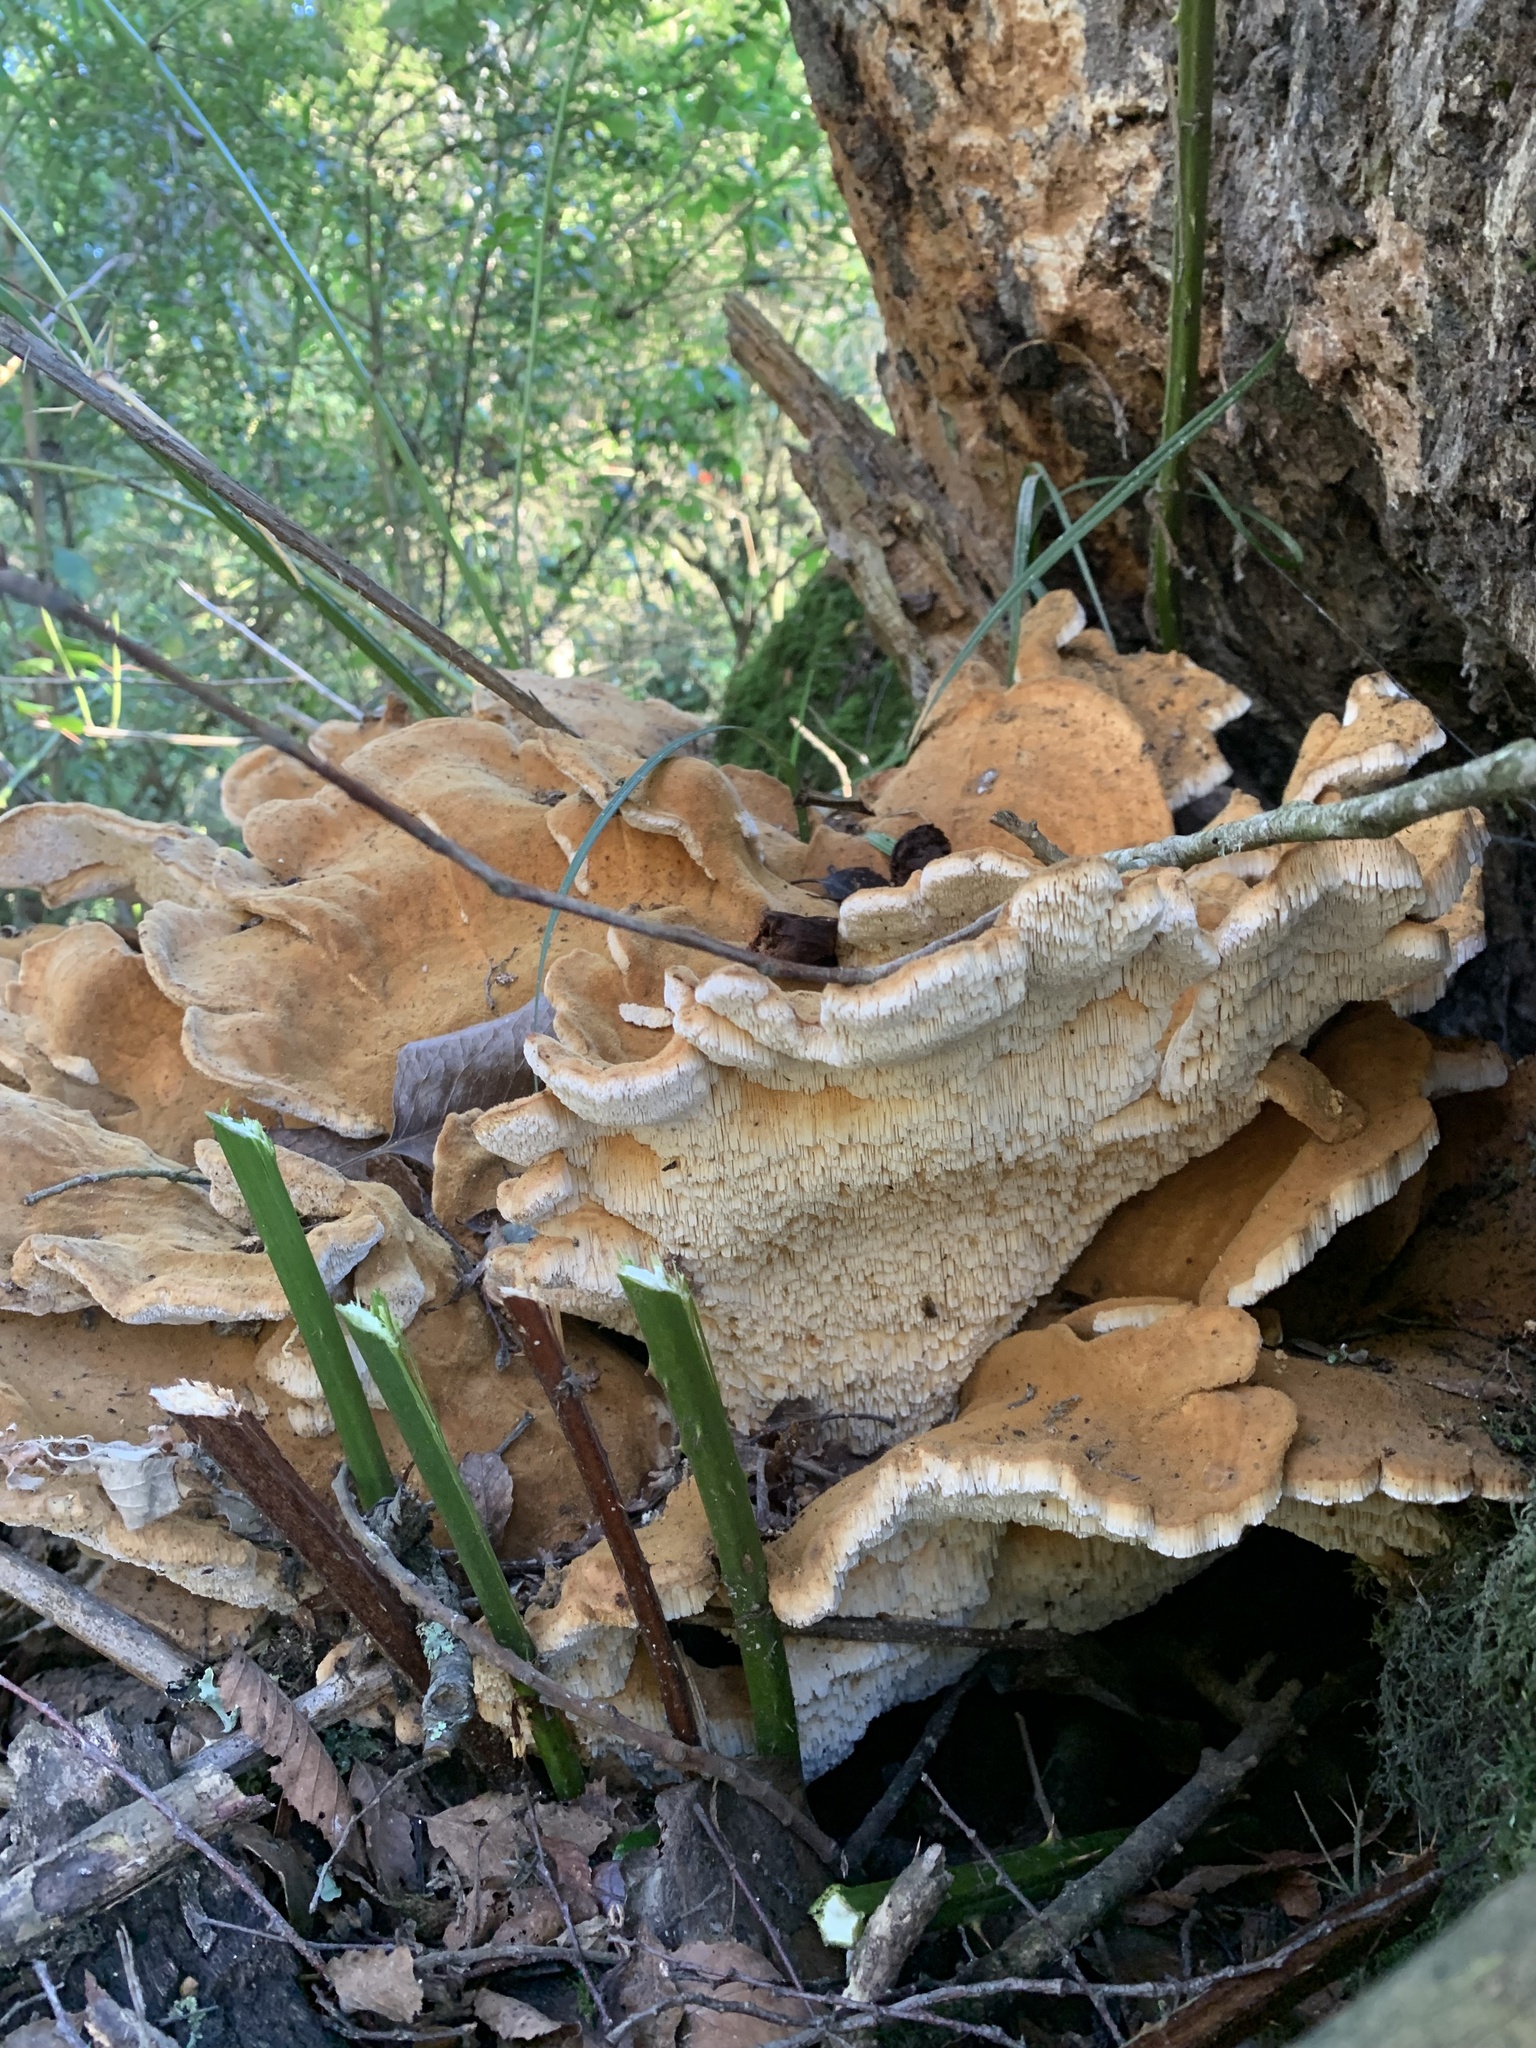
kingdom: Fungi
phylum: Basidiomycota
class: Agaricomycetes
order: Russulales
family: Bondarzewiaceae
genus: Bondarzewia
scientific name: Bondarzewia guaitecasensis
